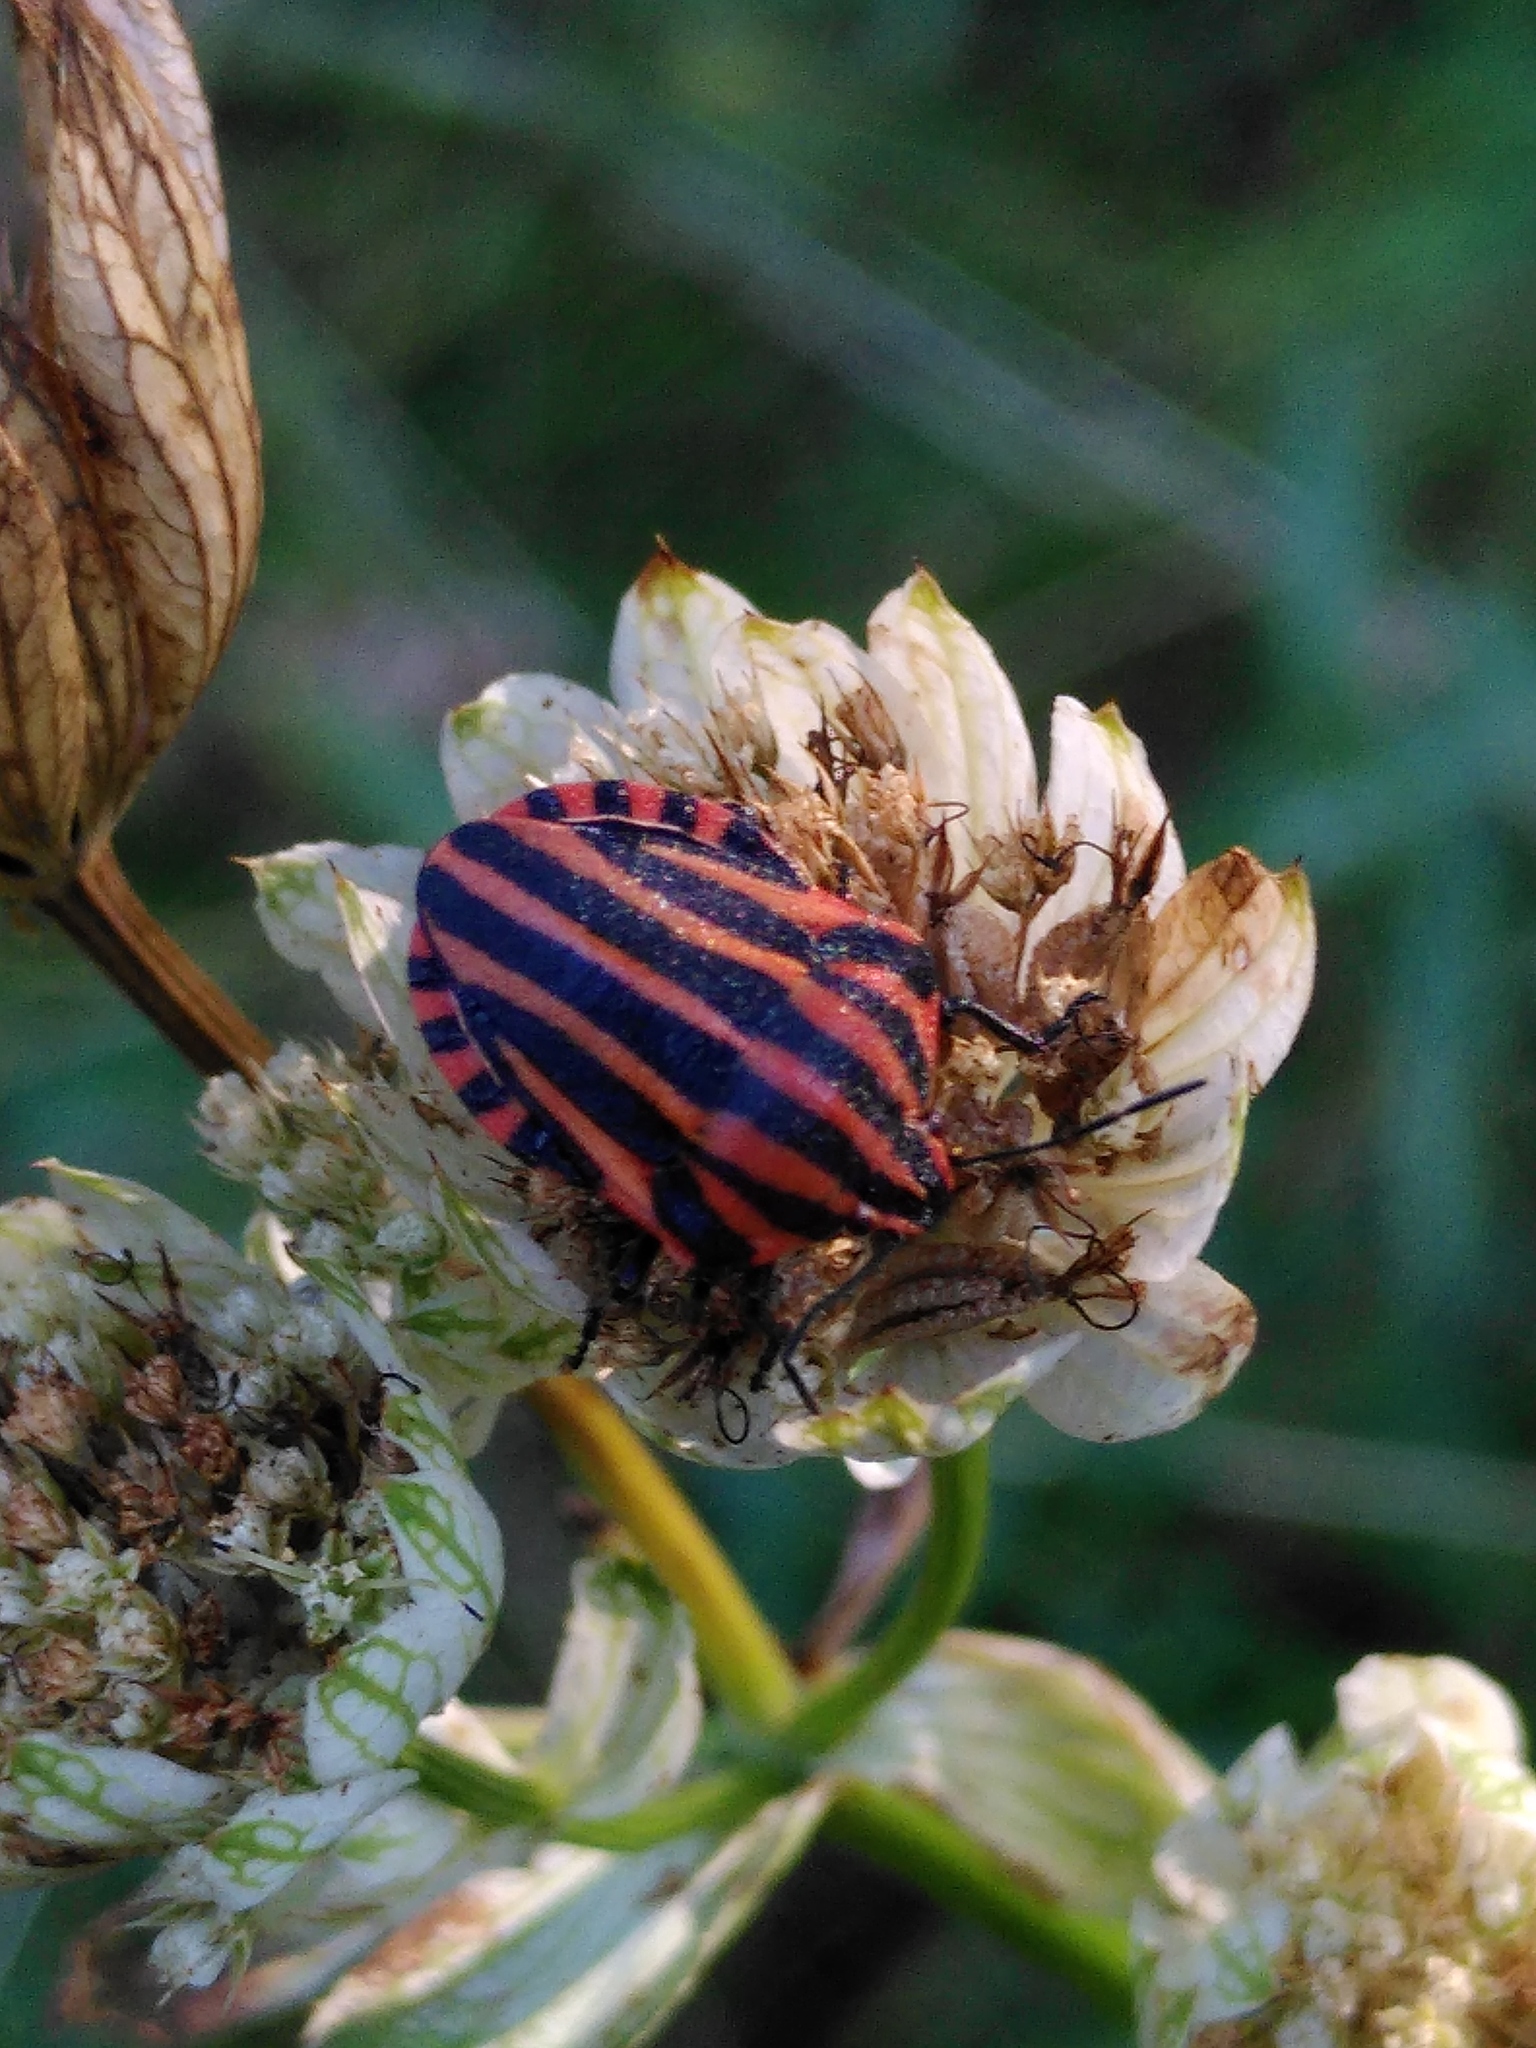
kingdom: Animalia
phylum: Arthropoda
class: Insecta
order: Hemiptera
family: Pentatomidae
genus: Graphosoma
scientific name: Graphosoma italicum
